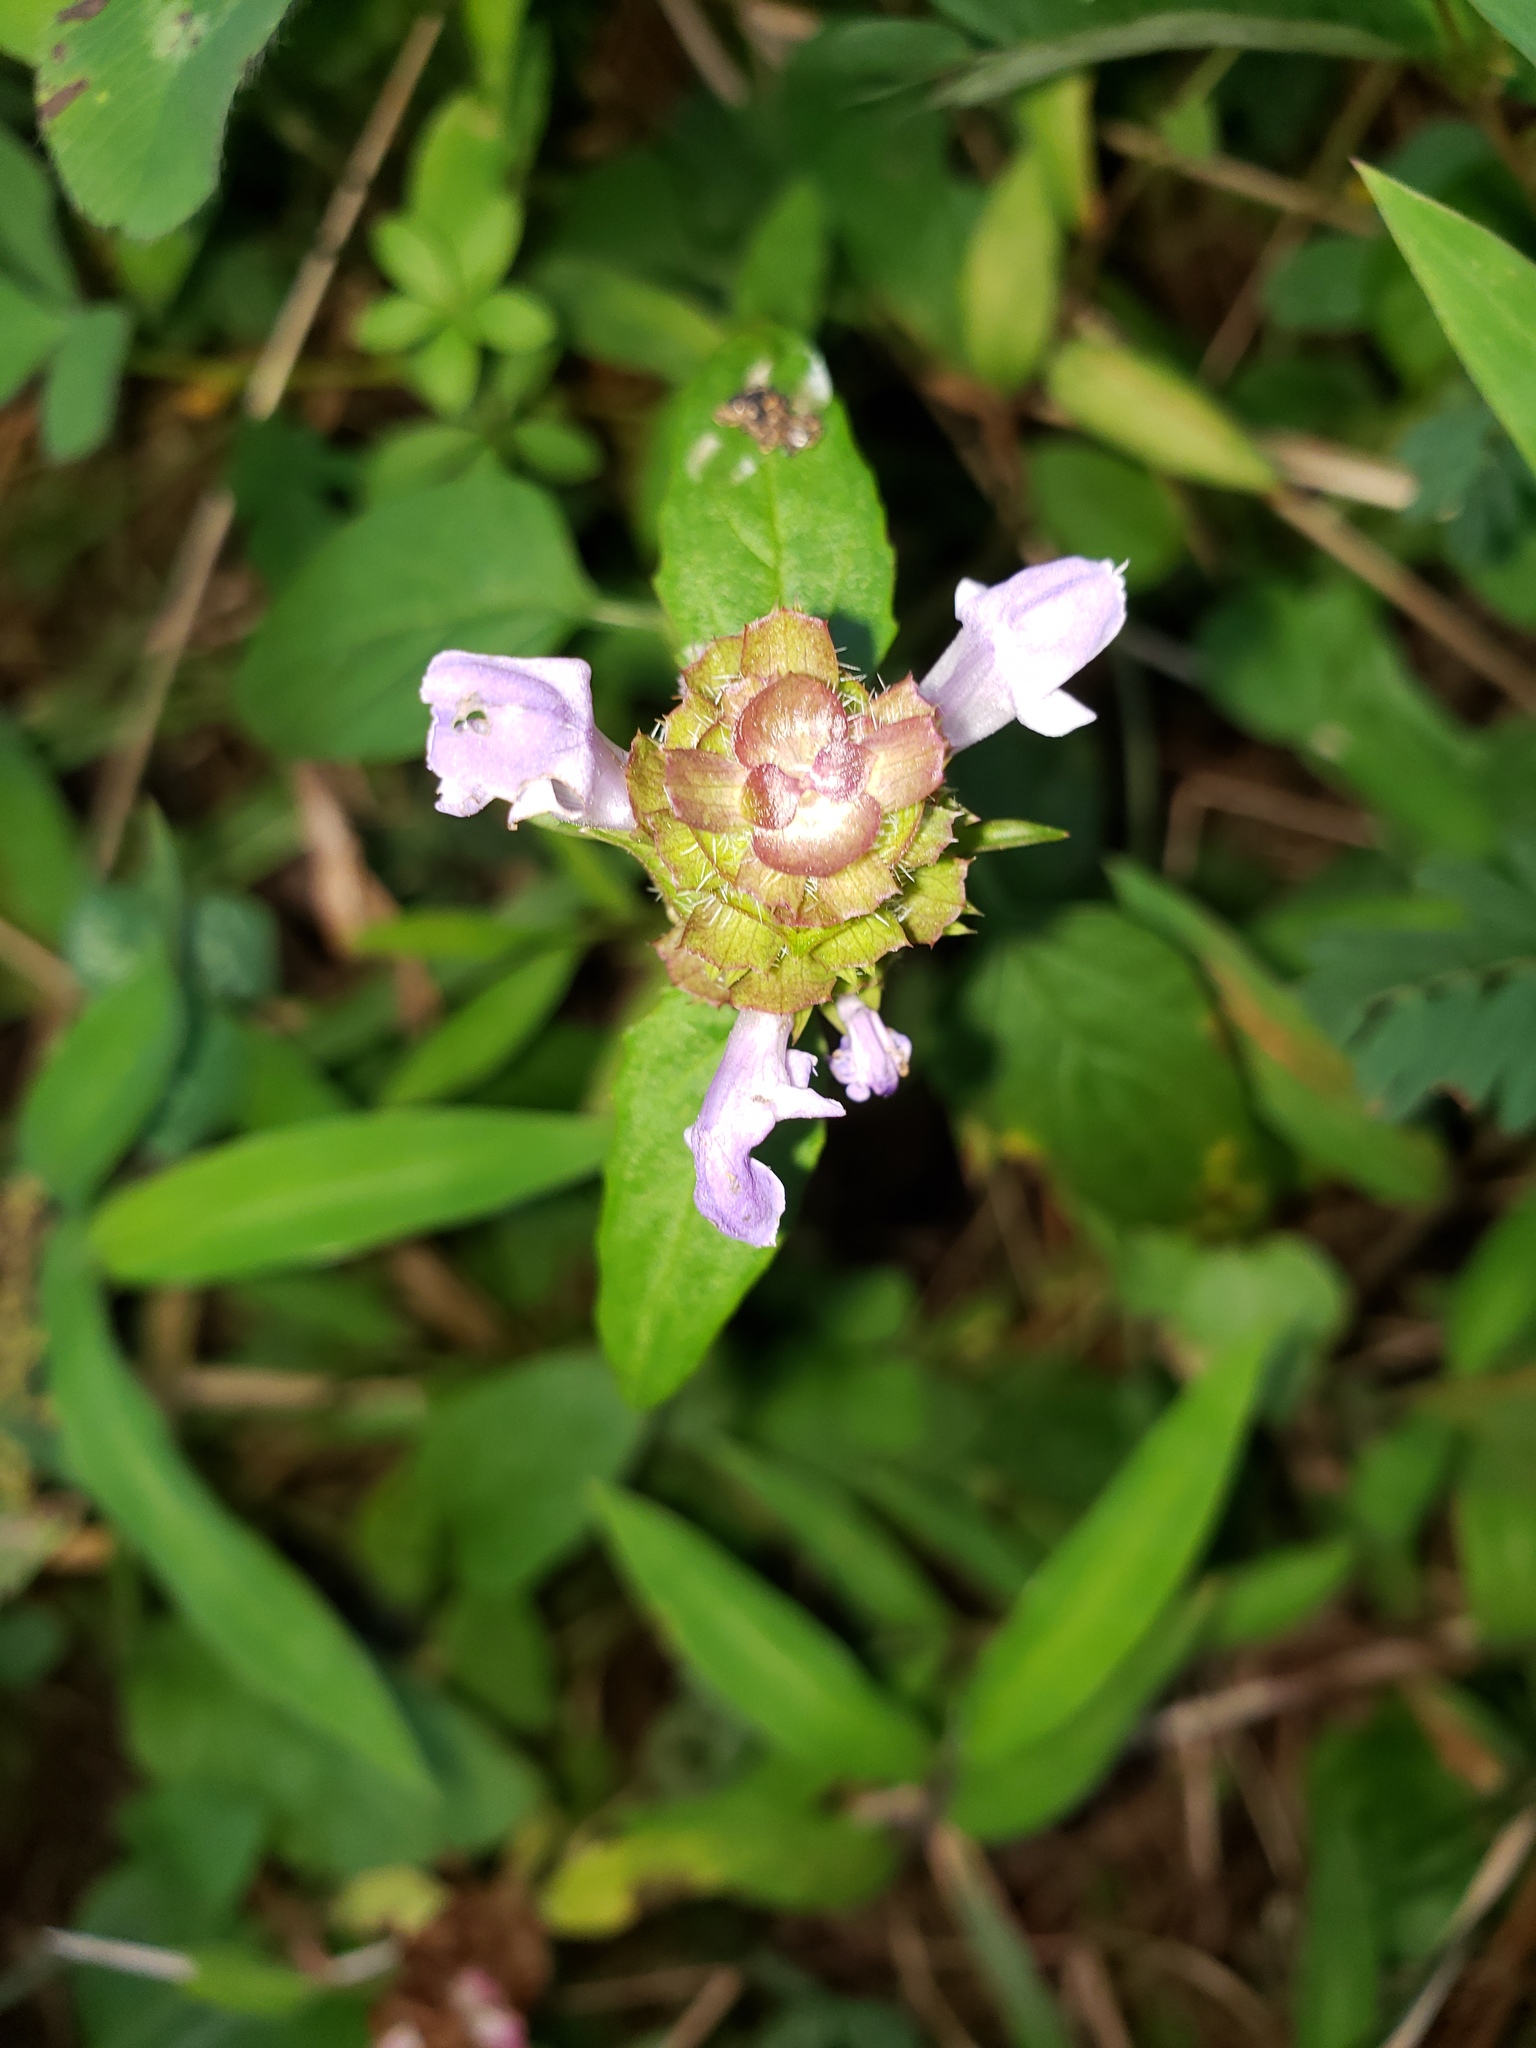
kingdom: Plantae
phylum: Tracheophyta
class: Magnoliopsida
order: Lamiales
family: Lamiaceae
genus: Prunella
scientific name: Prunella vulgaris
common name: Heal-all
